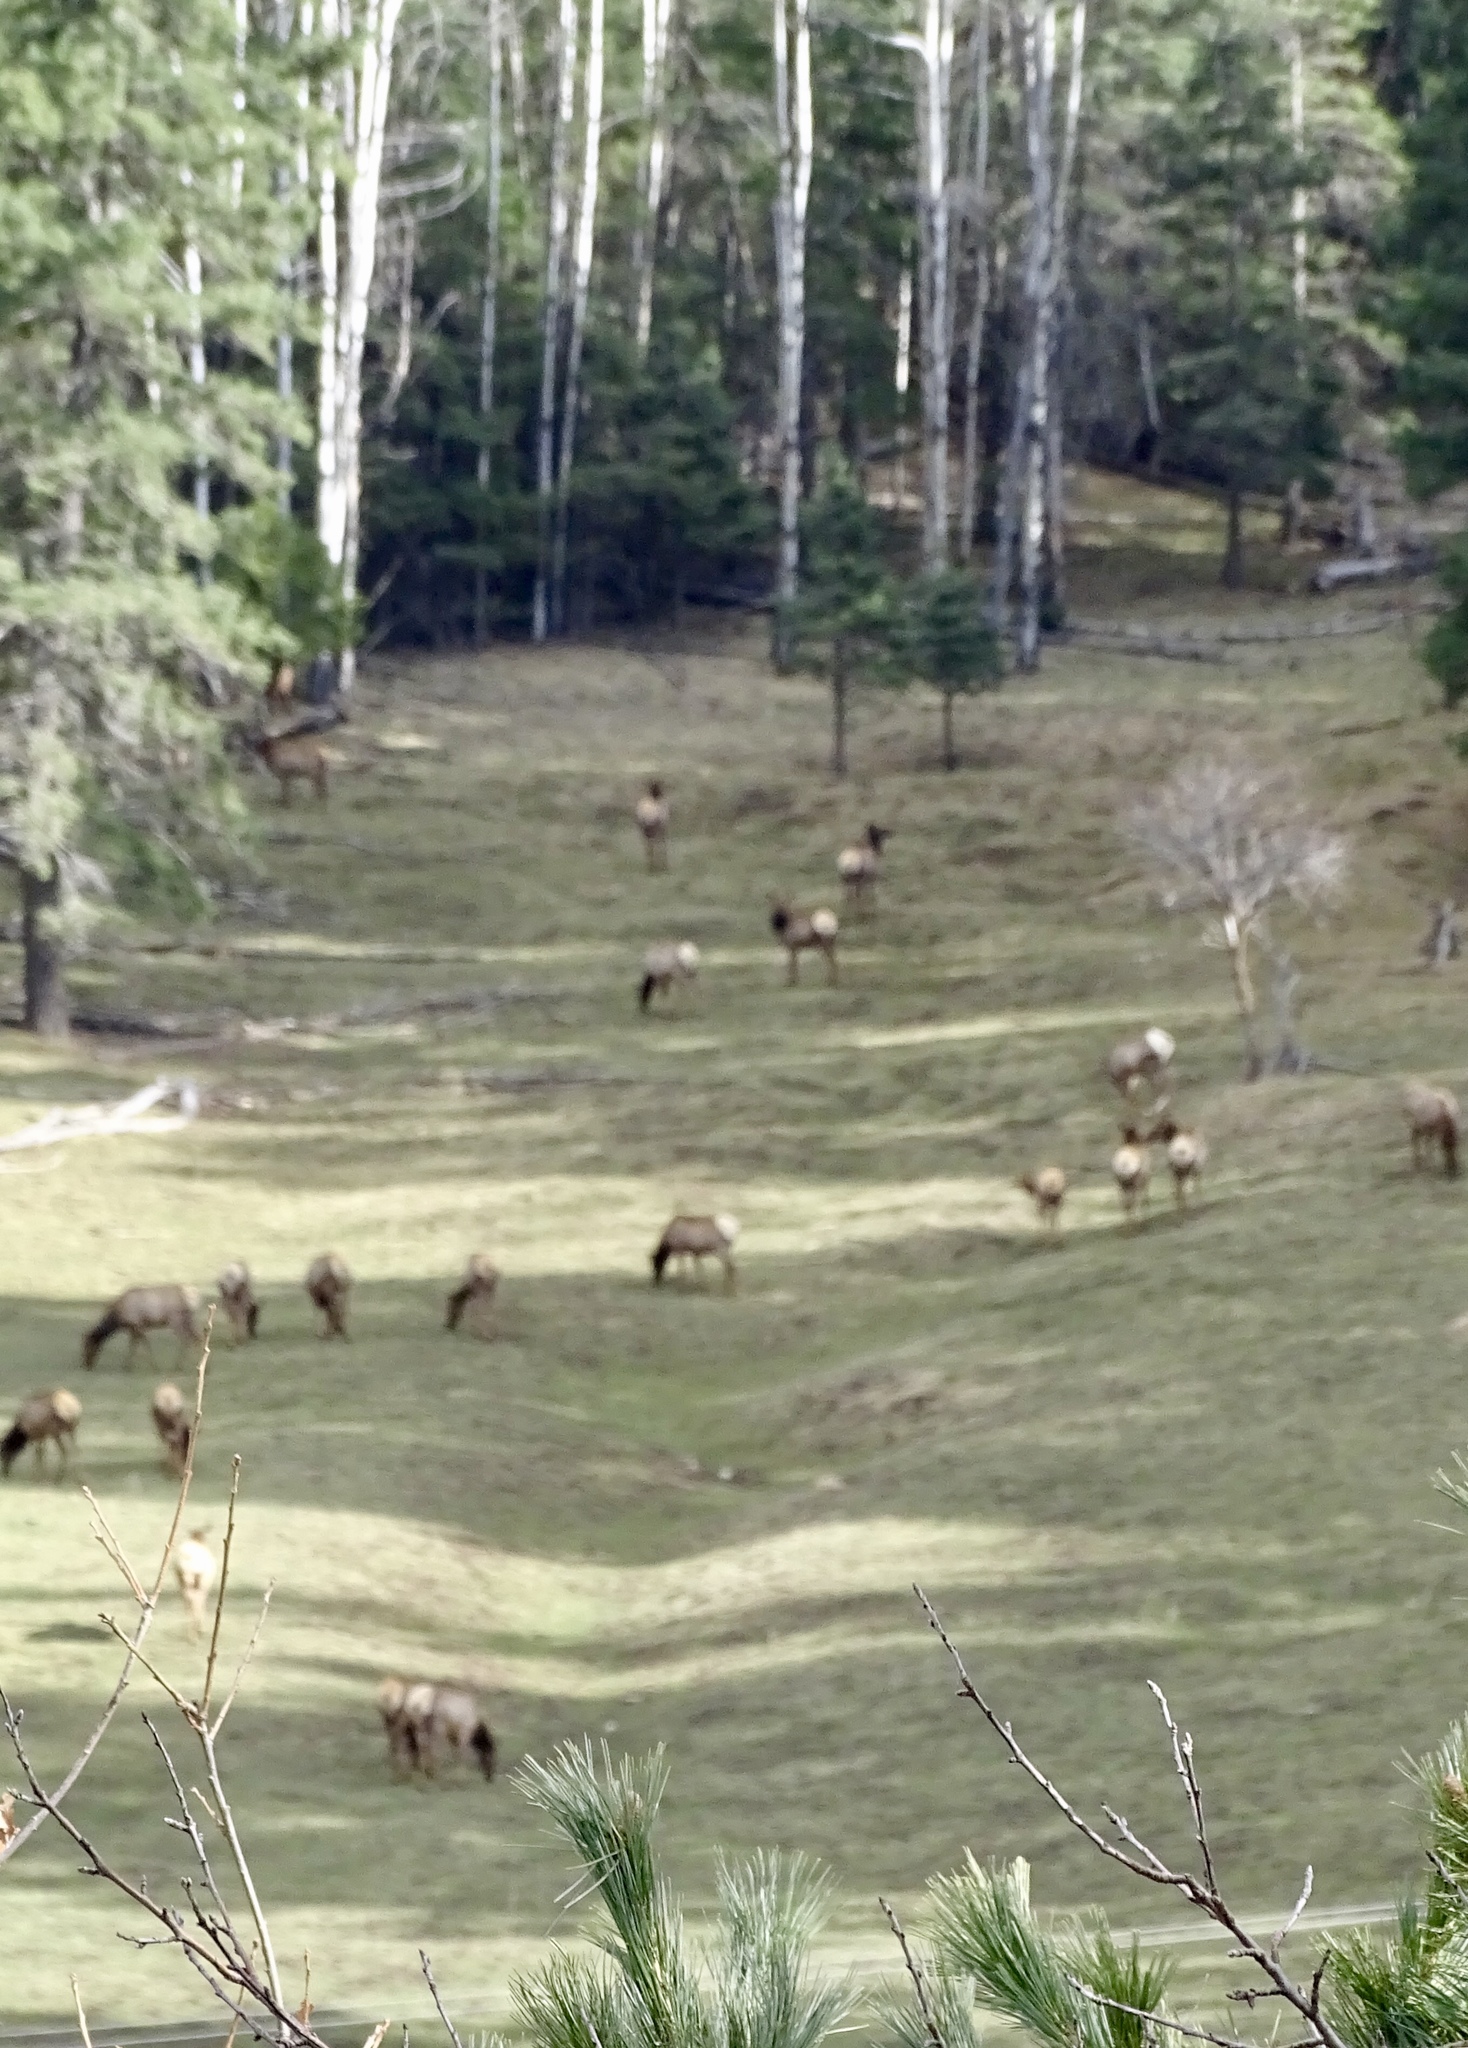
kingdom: Animalia
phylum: Chordata
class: Mammalia
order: Artiodactyla
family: Cervidae
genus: Cervus
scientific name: Cervus elaphus
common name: Red deer
